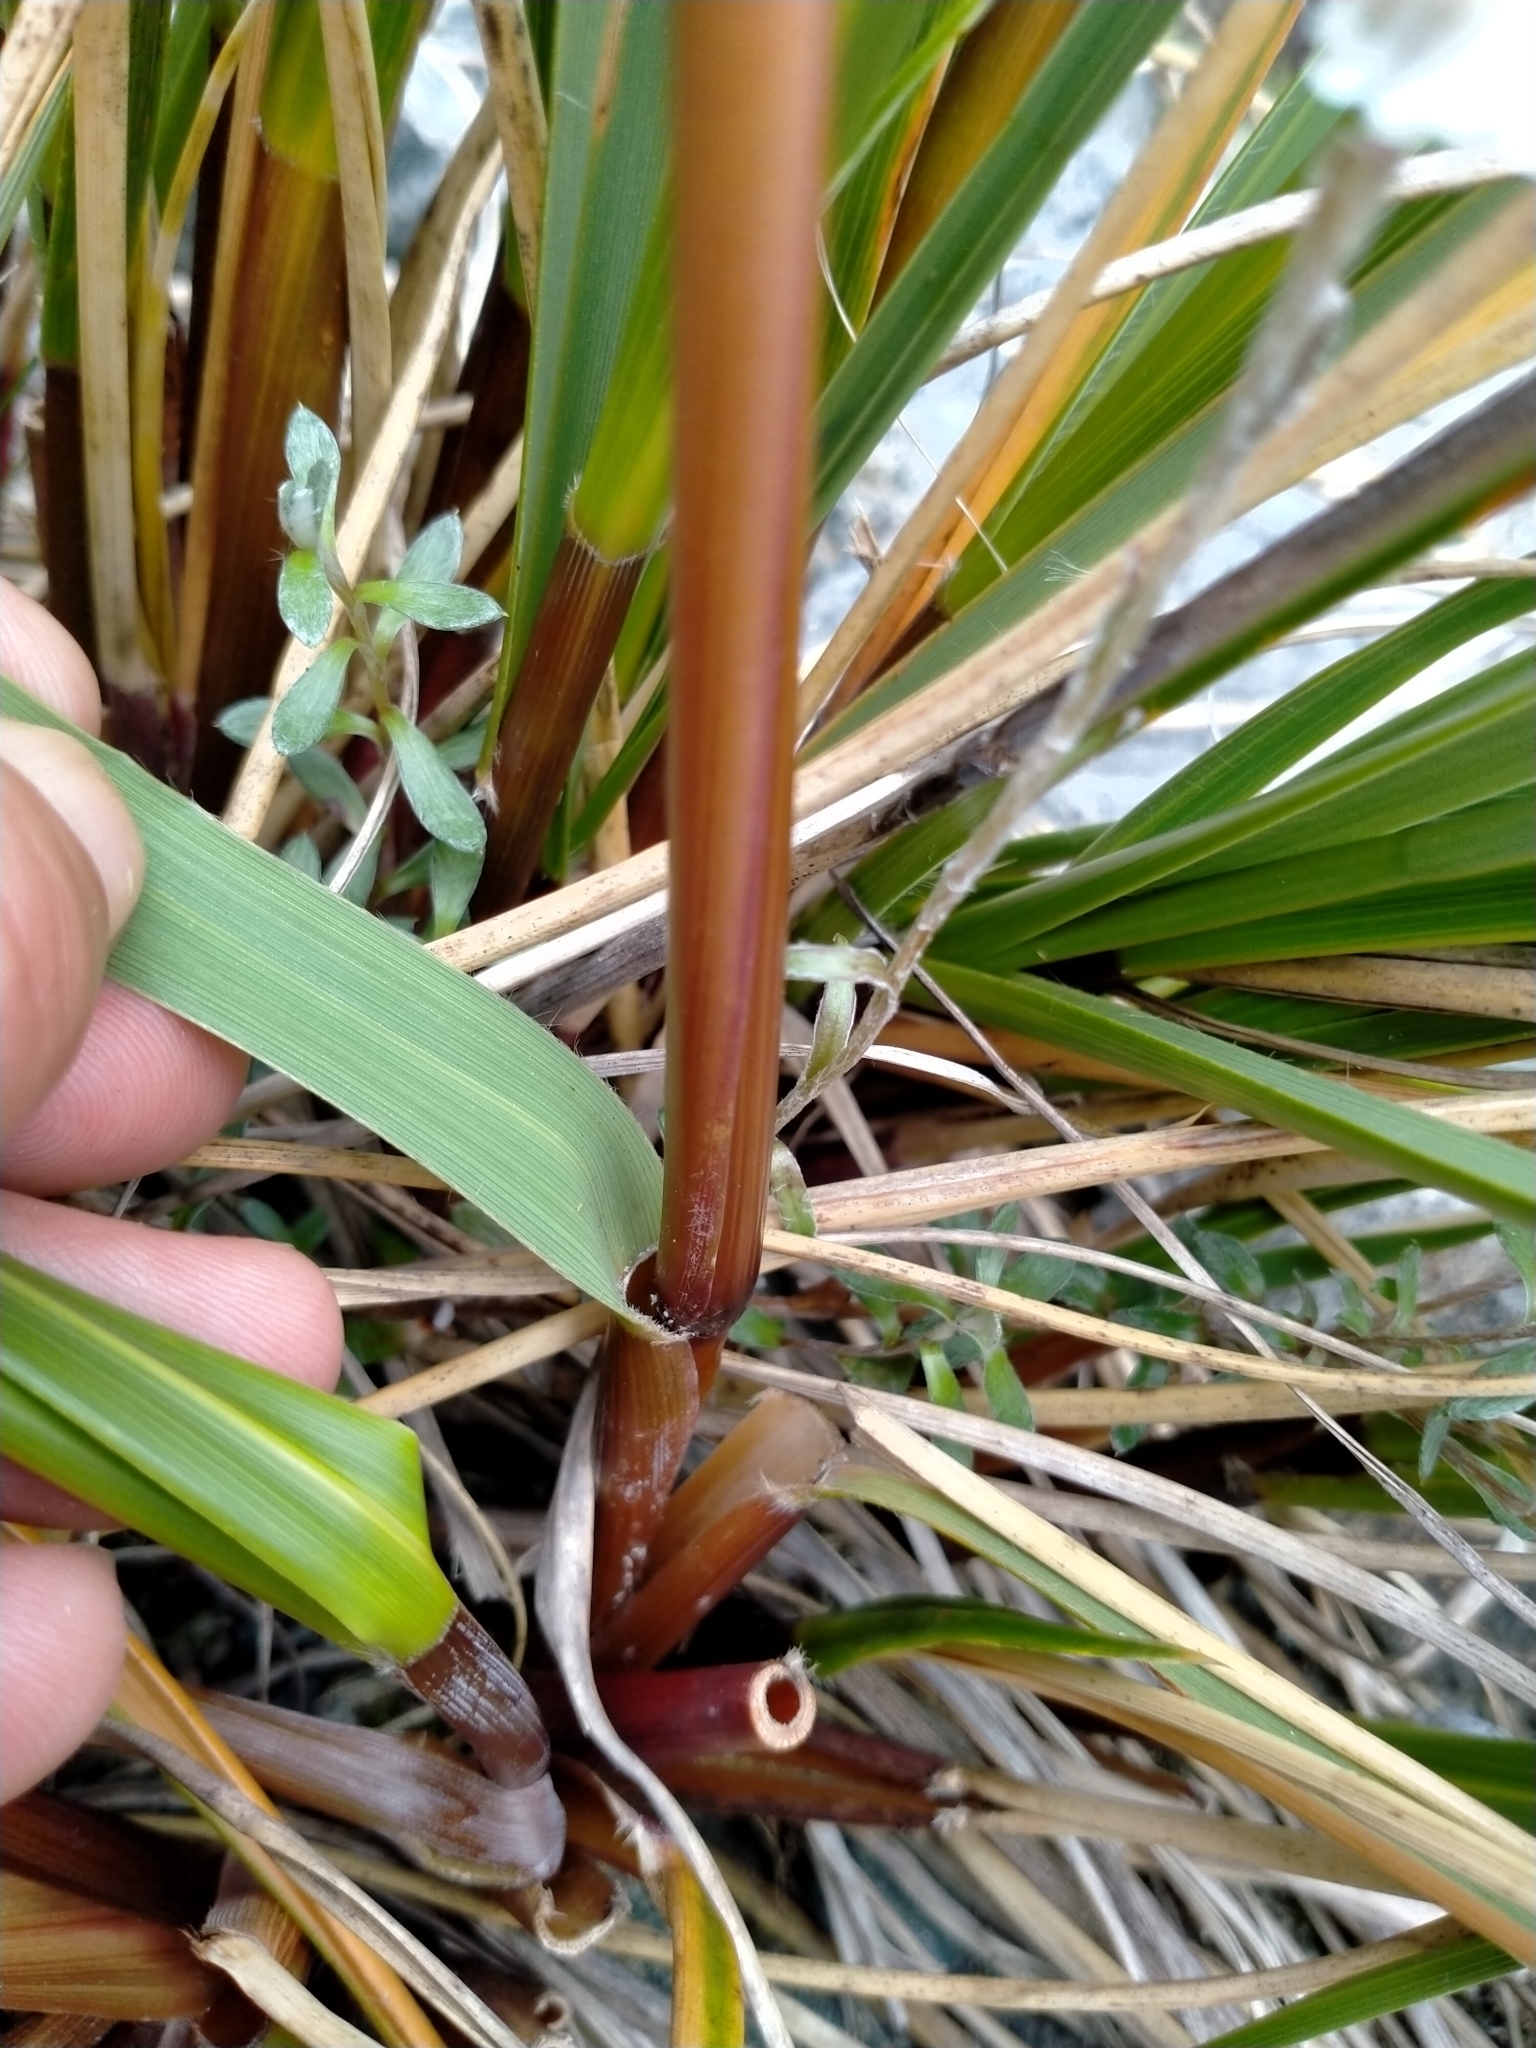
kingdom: Plantae
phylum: Tracheophyta
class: Liliopsida
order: Poales
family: Poaceae
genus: Chionochloa
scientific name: Chionochloa pallens
